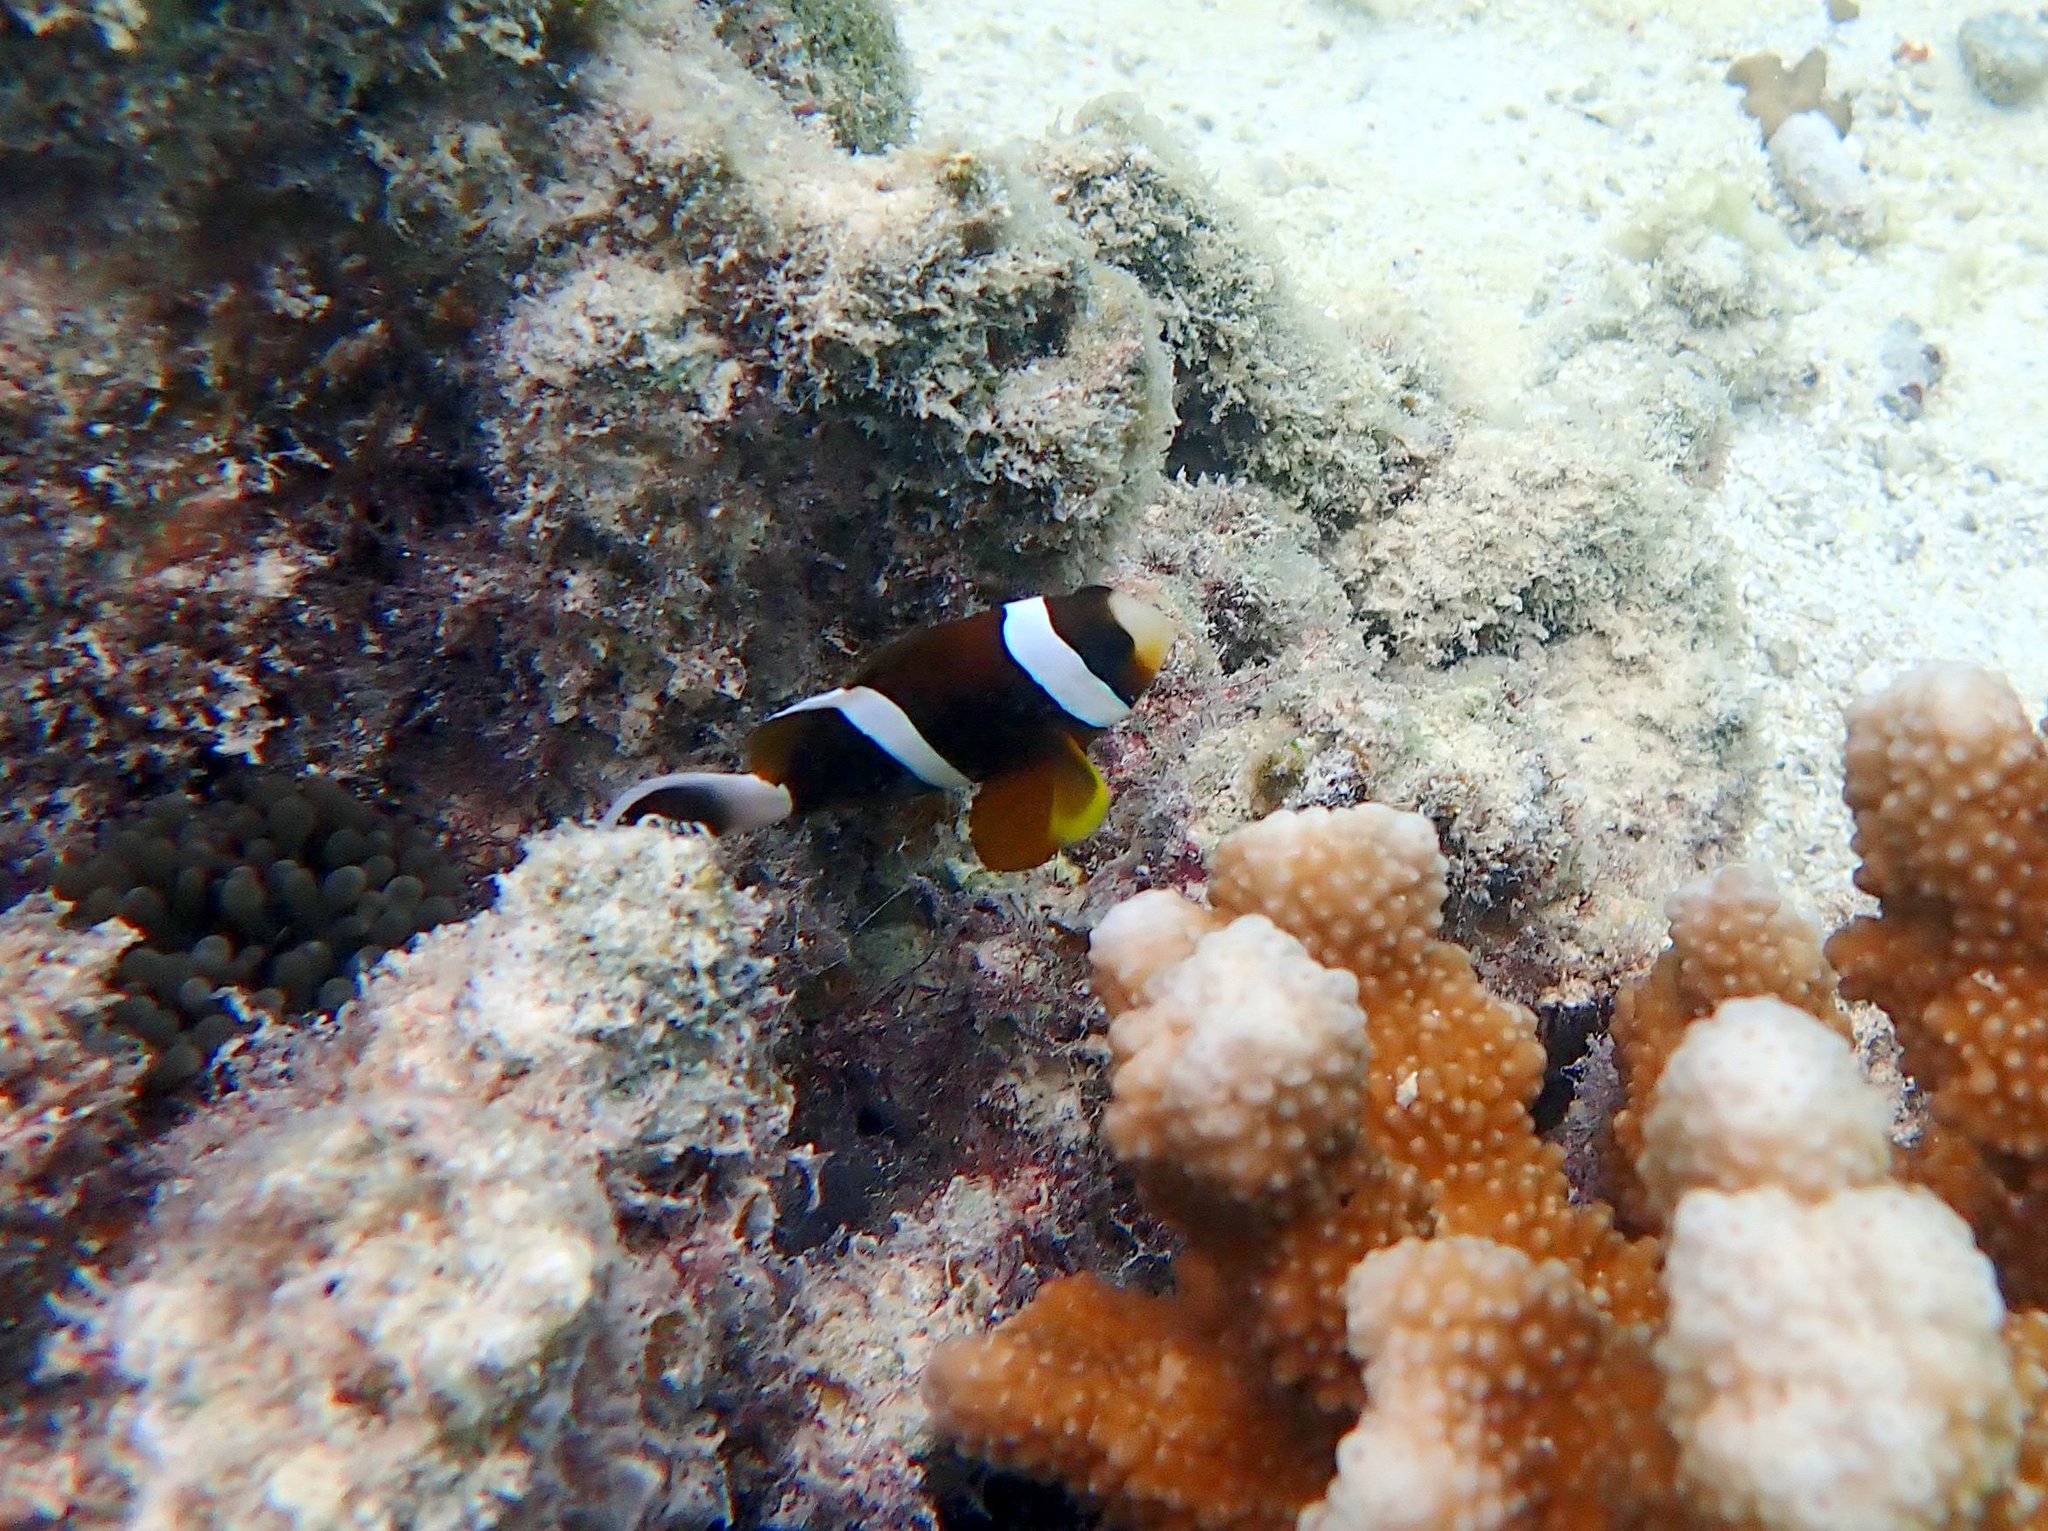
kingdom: Animalia
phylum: Chordata
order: Perciformes
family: Pomacentridae
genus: Amphiprion
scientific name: Amphiprion akindynos
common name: Barrier reef anemonefish
